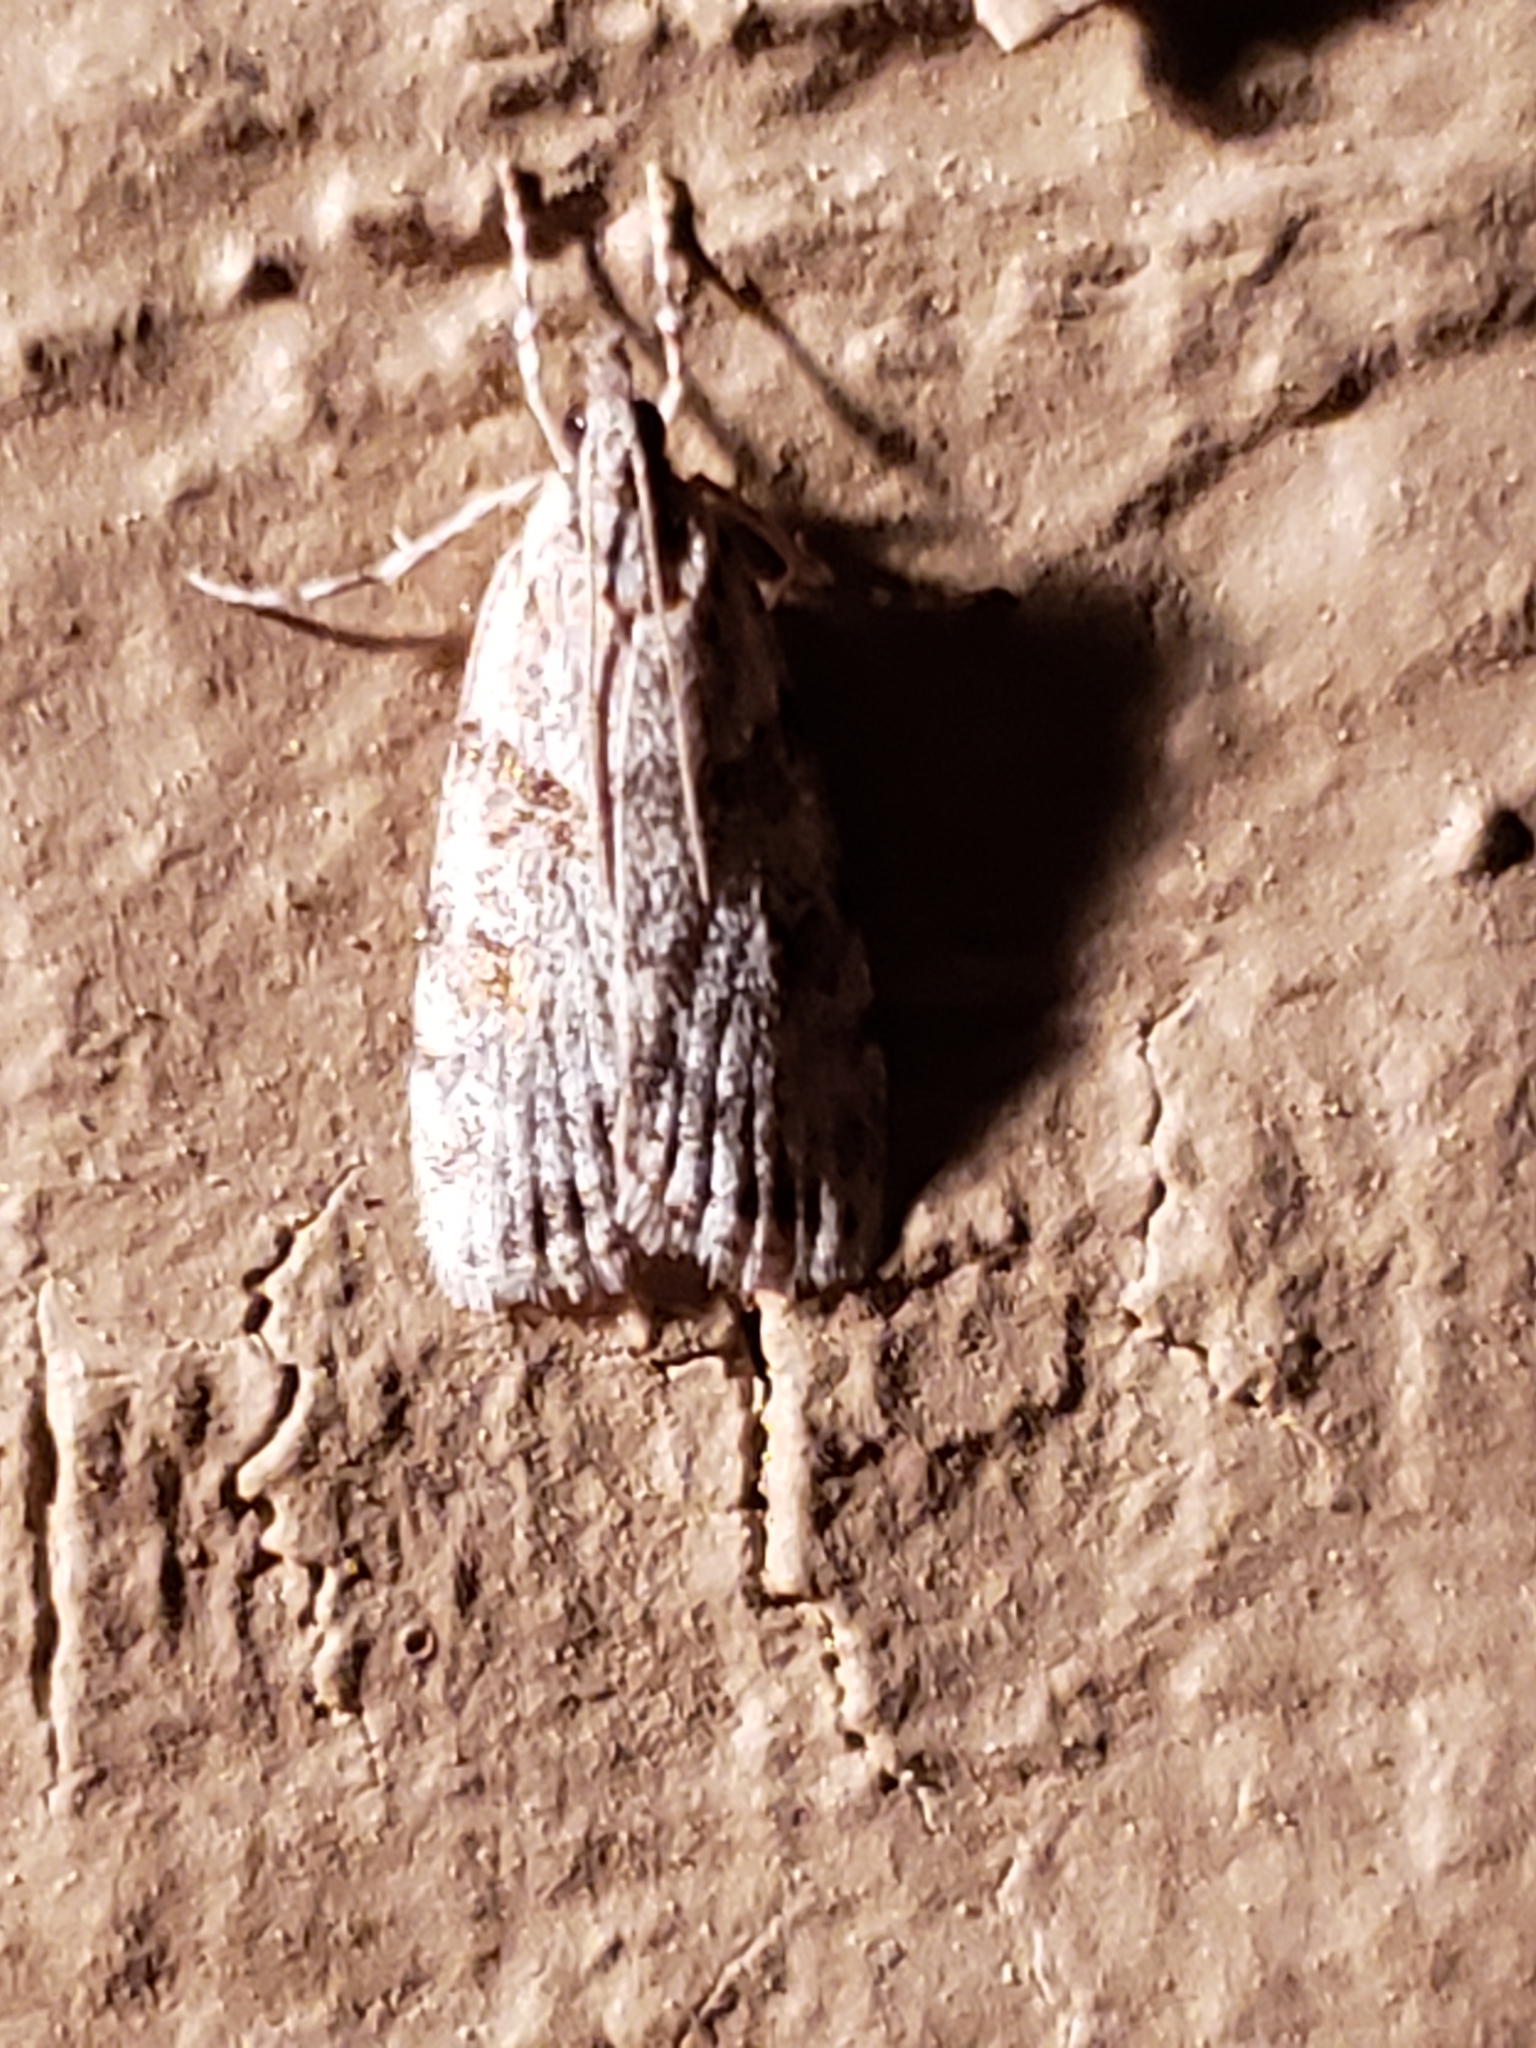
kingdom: Animalia
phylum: Arthropoda
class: Insecta
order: Lepidoptera
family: Crambidae
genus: Scoparia
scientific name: Scoparia biplagialis
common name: Double-striped scoparia moth
